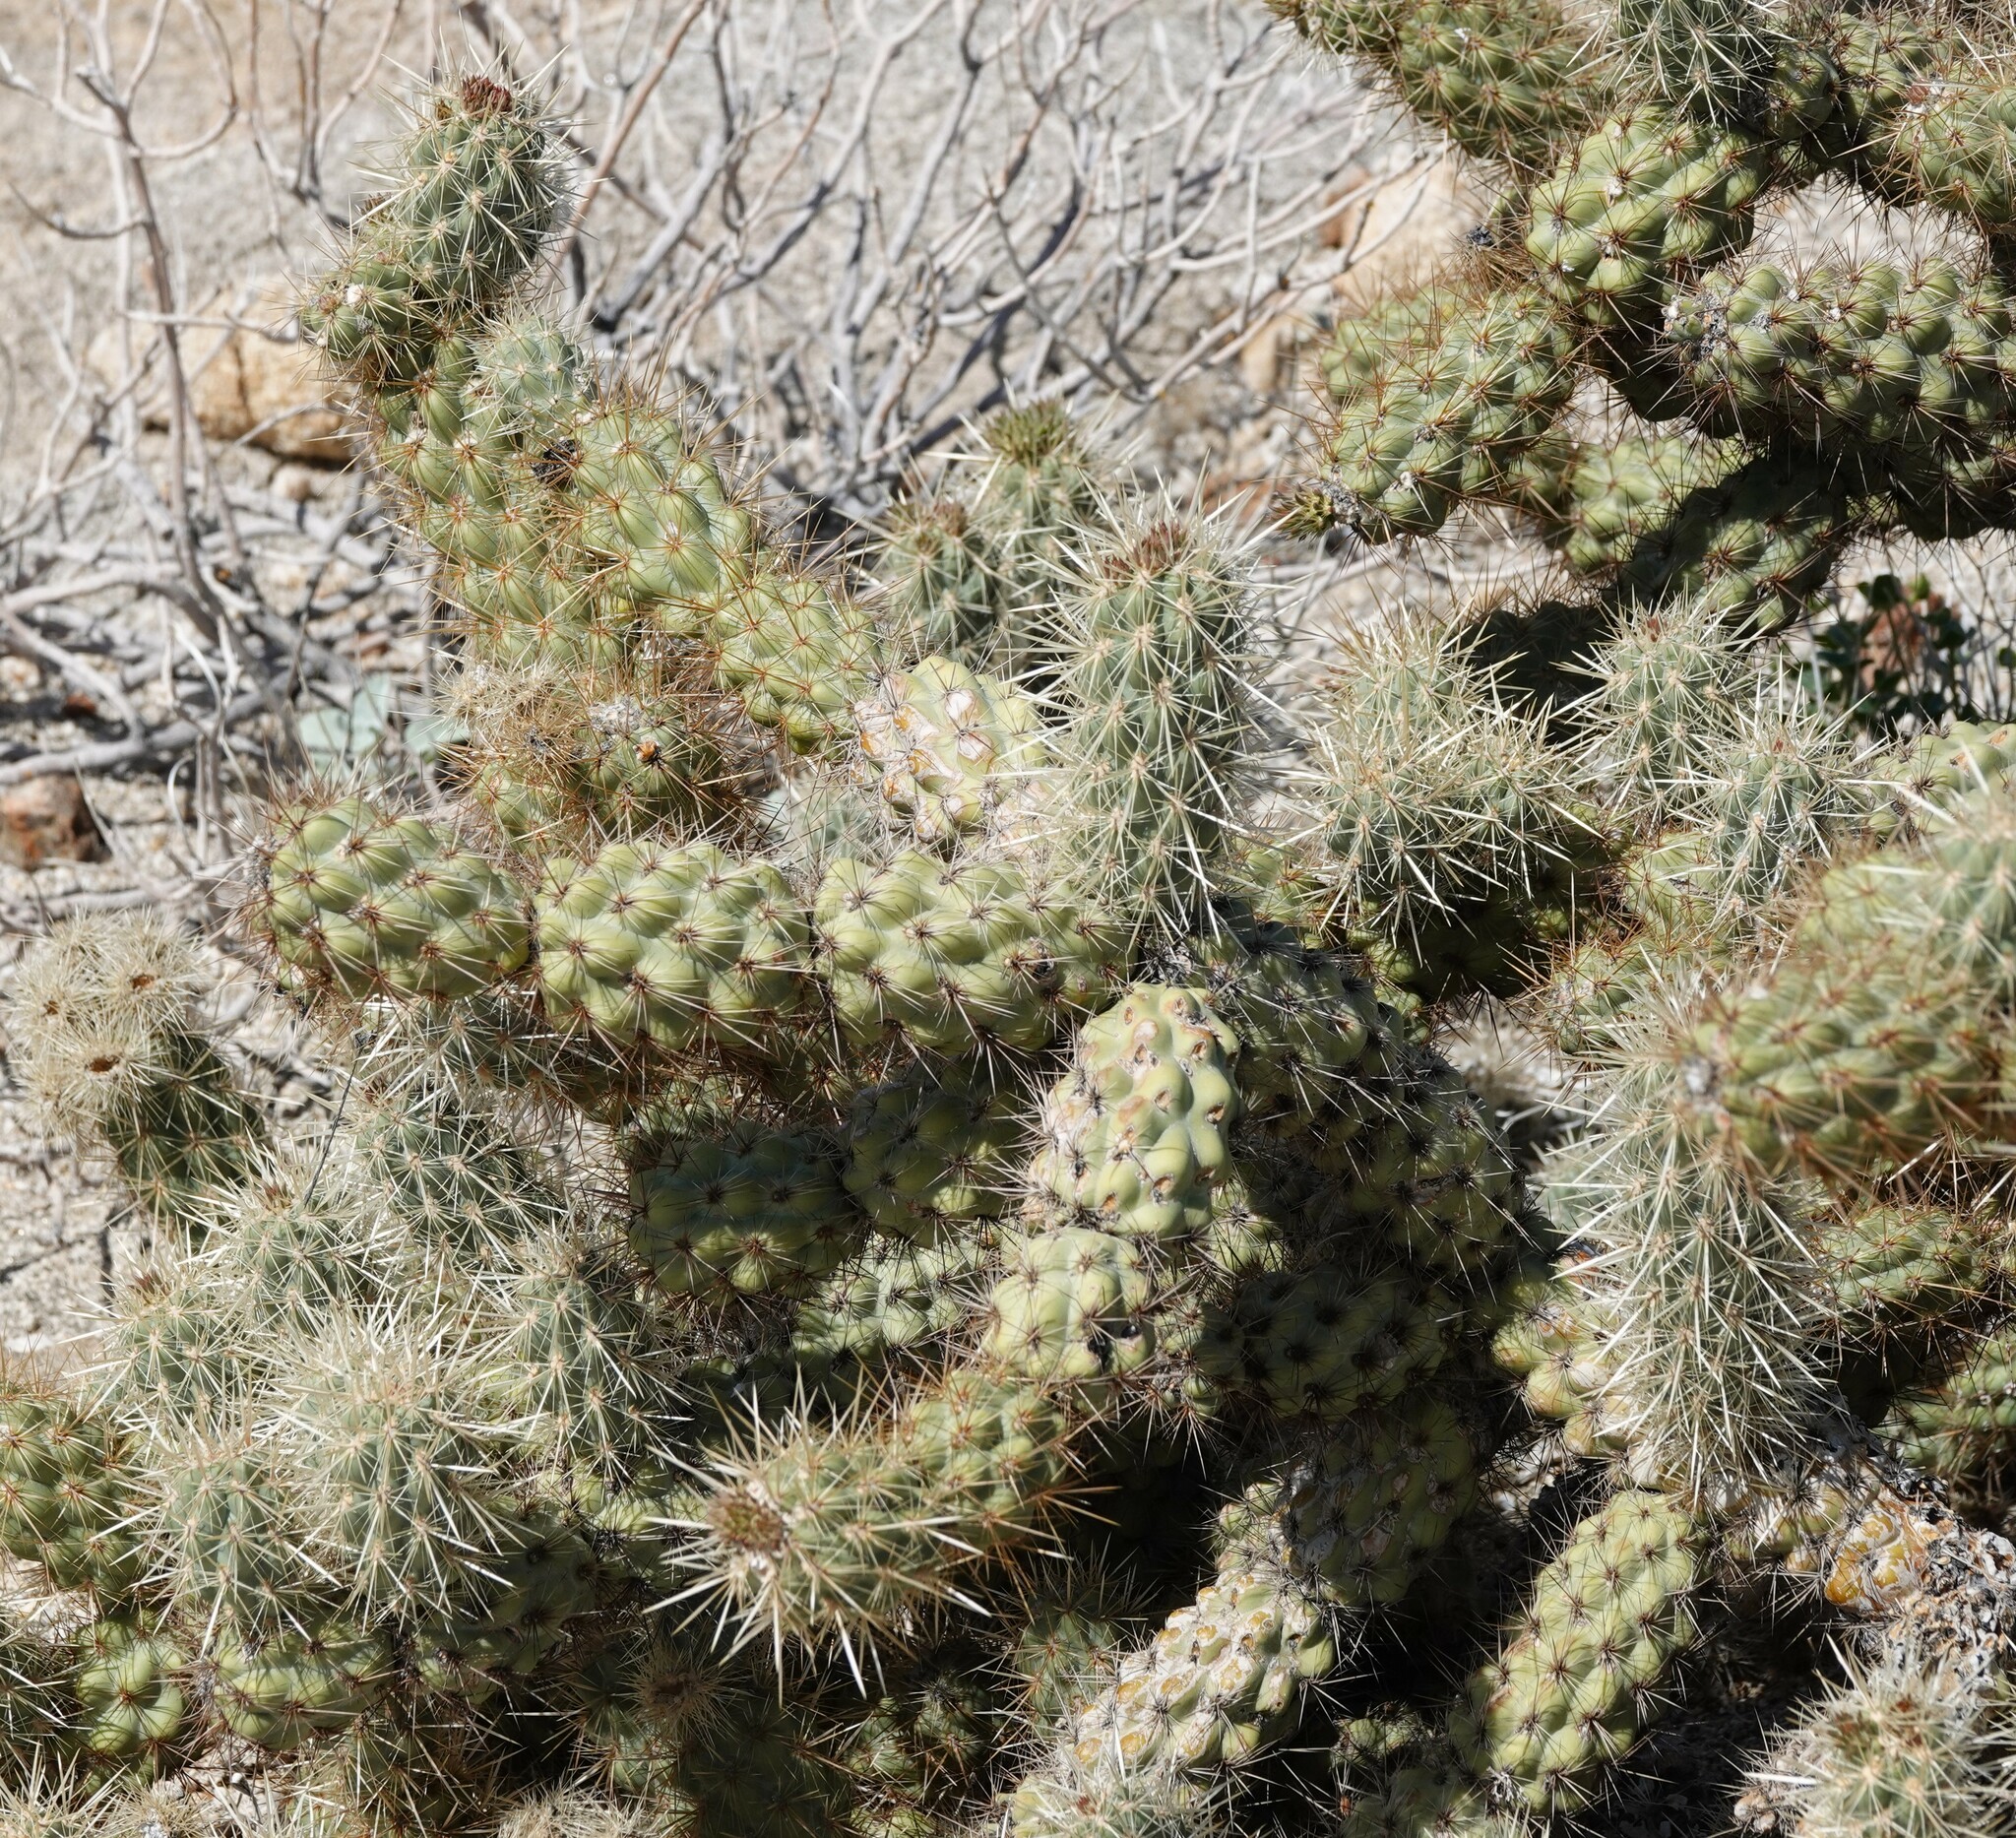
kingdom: Plantae
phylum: Tracheophyta
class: Magnoliopsida
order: Caryophyllales
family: Cactaceae
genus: Cylindropuntia
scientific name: Cylindropuntia wolfii
